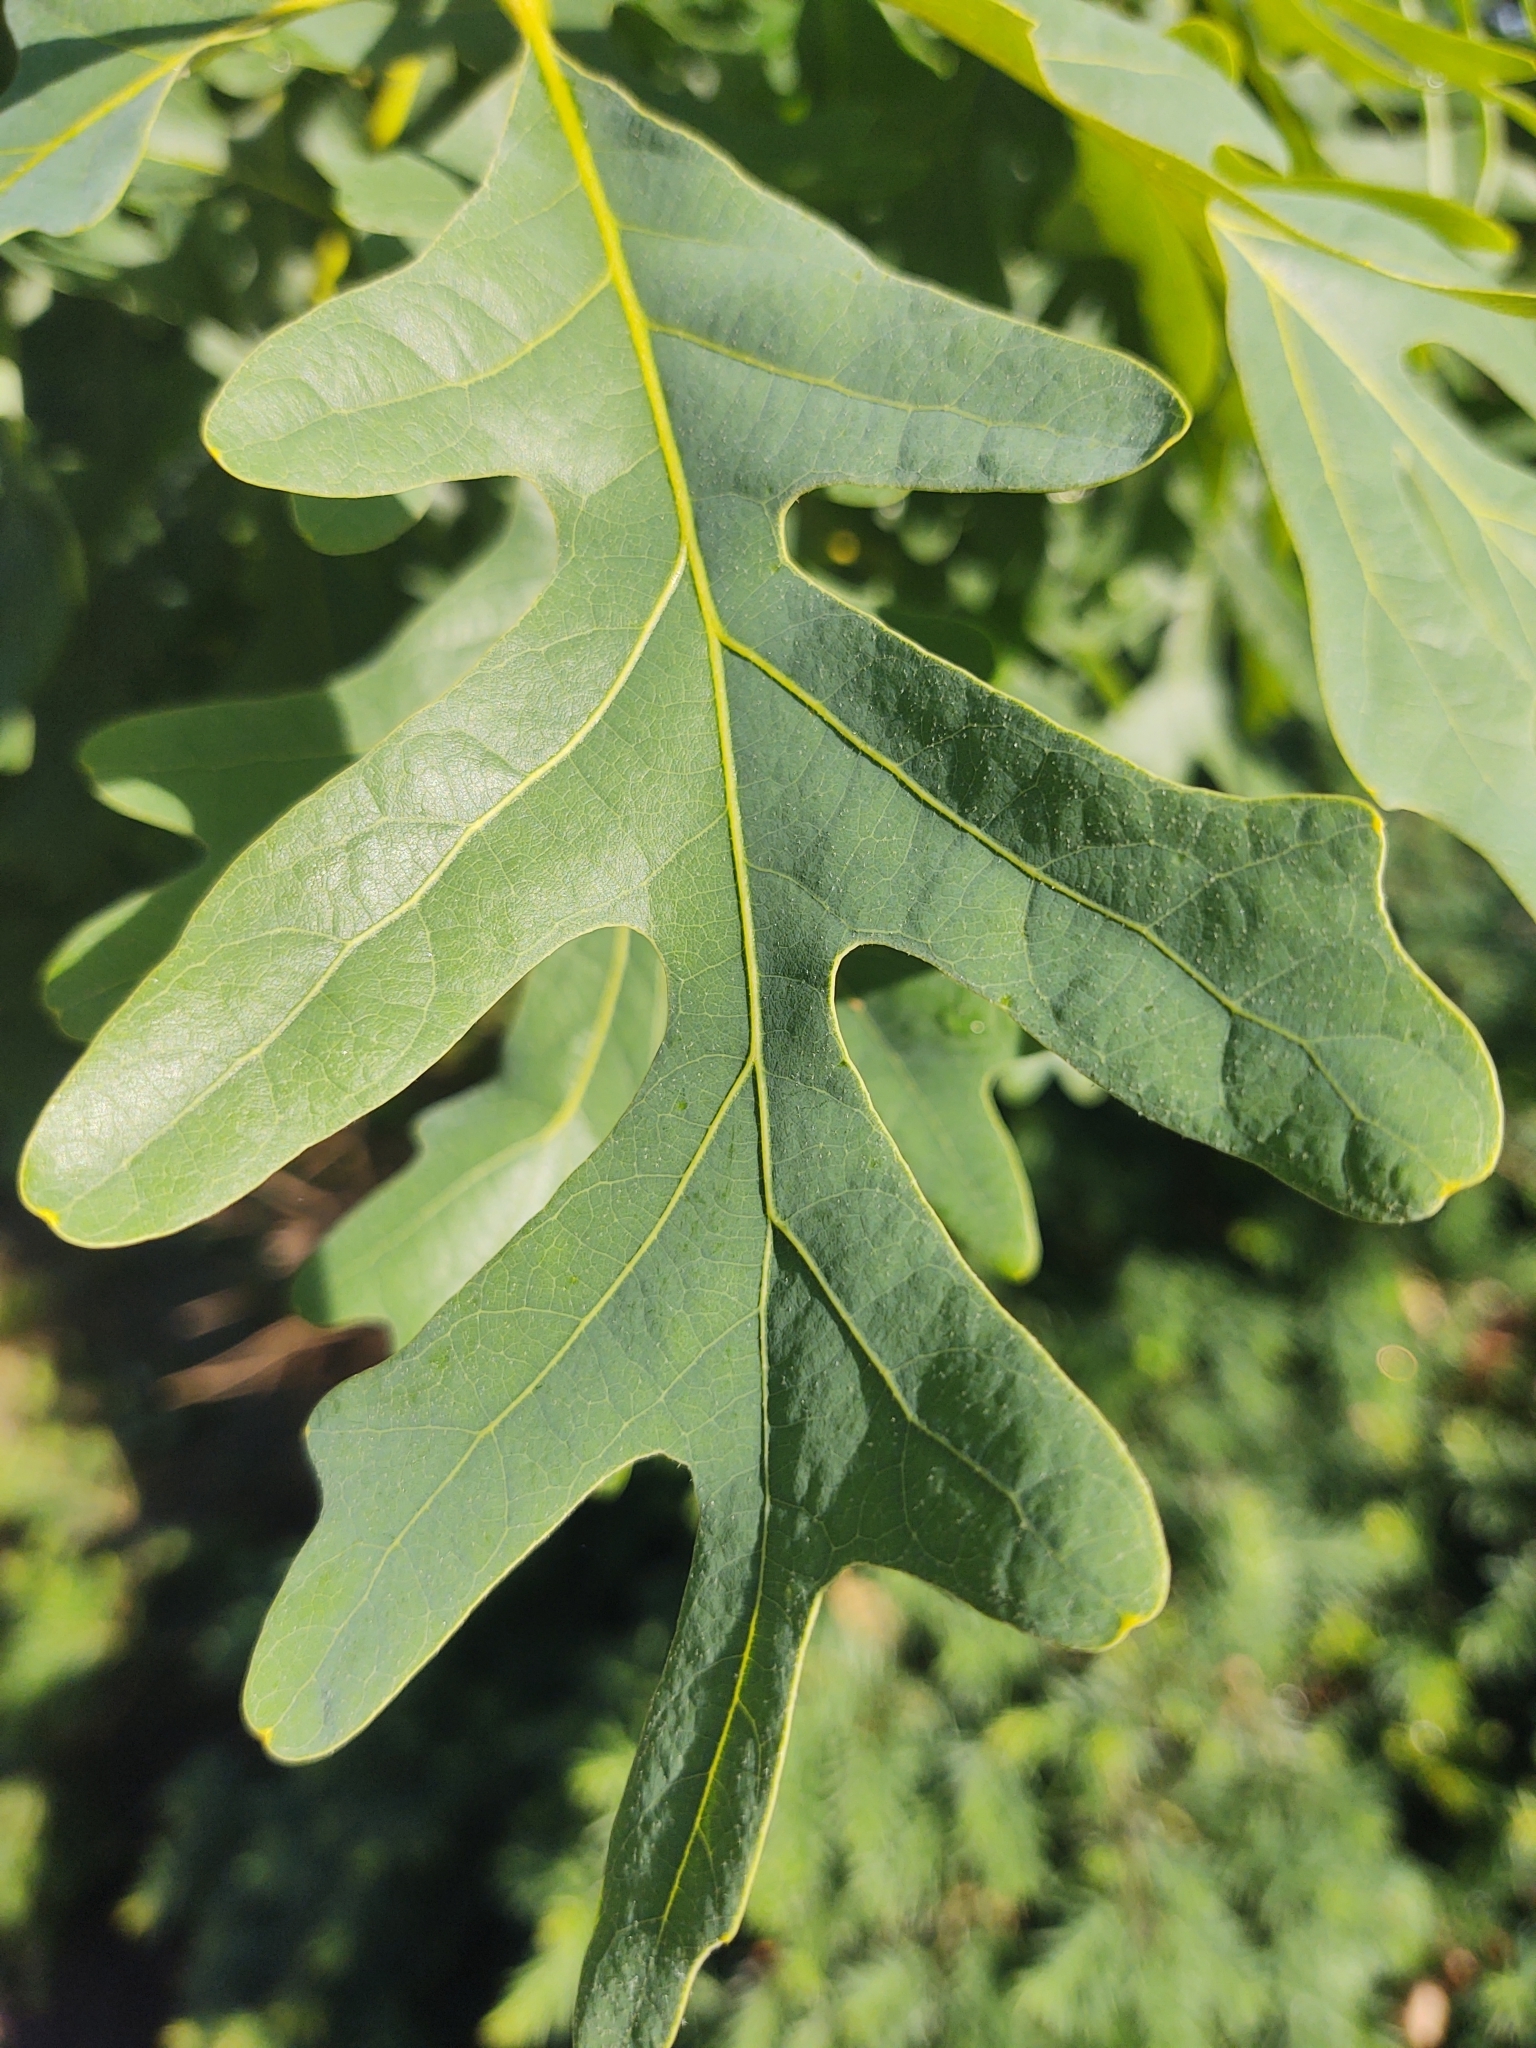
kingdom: Plantae
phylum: Tracheophyta
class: Magnoliopsida
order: Fagales
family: Fagaceae
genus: Quercus
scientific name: Quercus alba
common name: White oak
